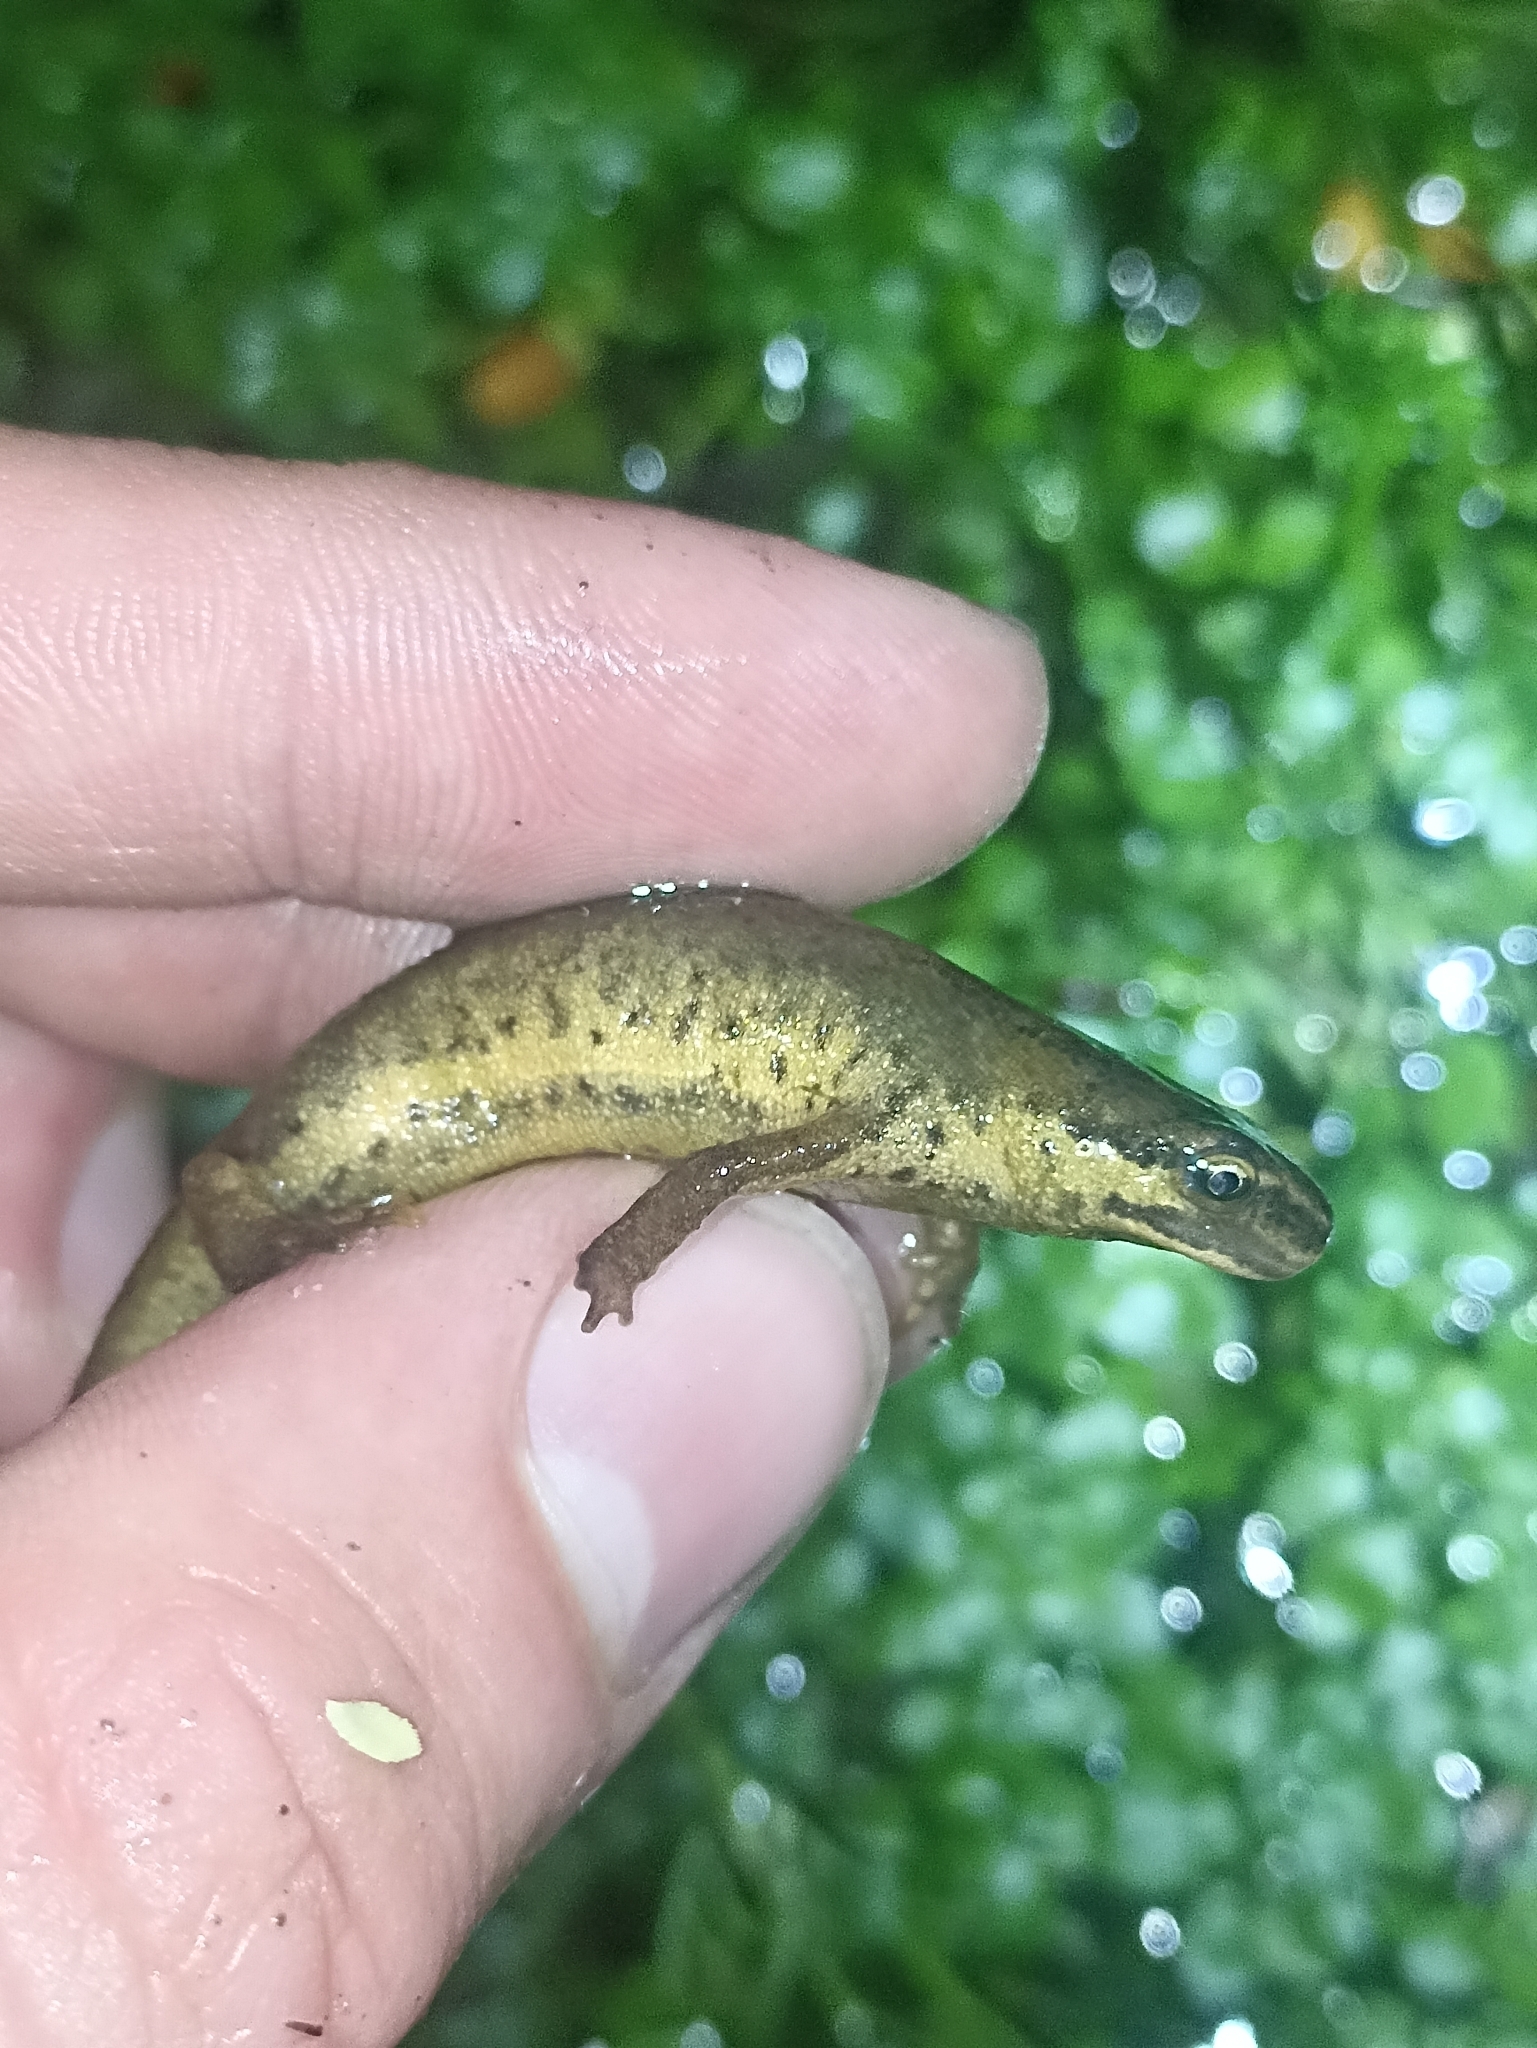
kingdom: Animalia
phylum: Chordata
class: Amphibia
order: Caudata
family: Salamandridae
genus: Lissotriton
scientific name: Lissotriton vulgaris
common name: Smooth newt
